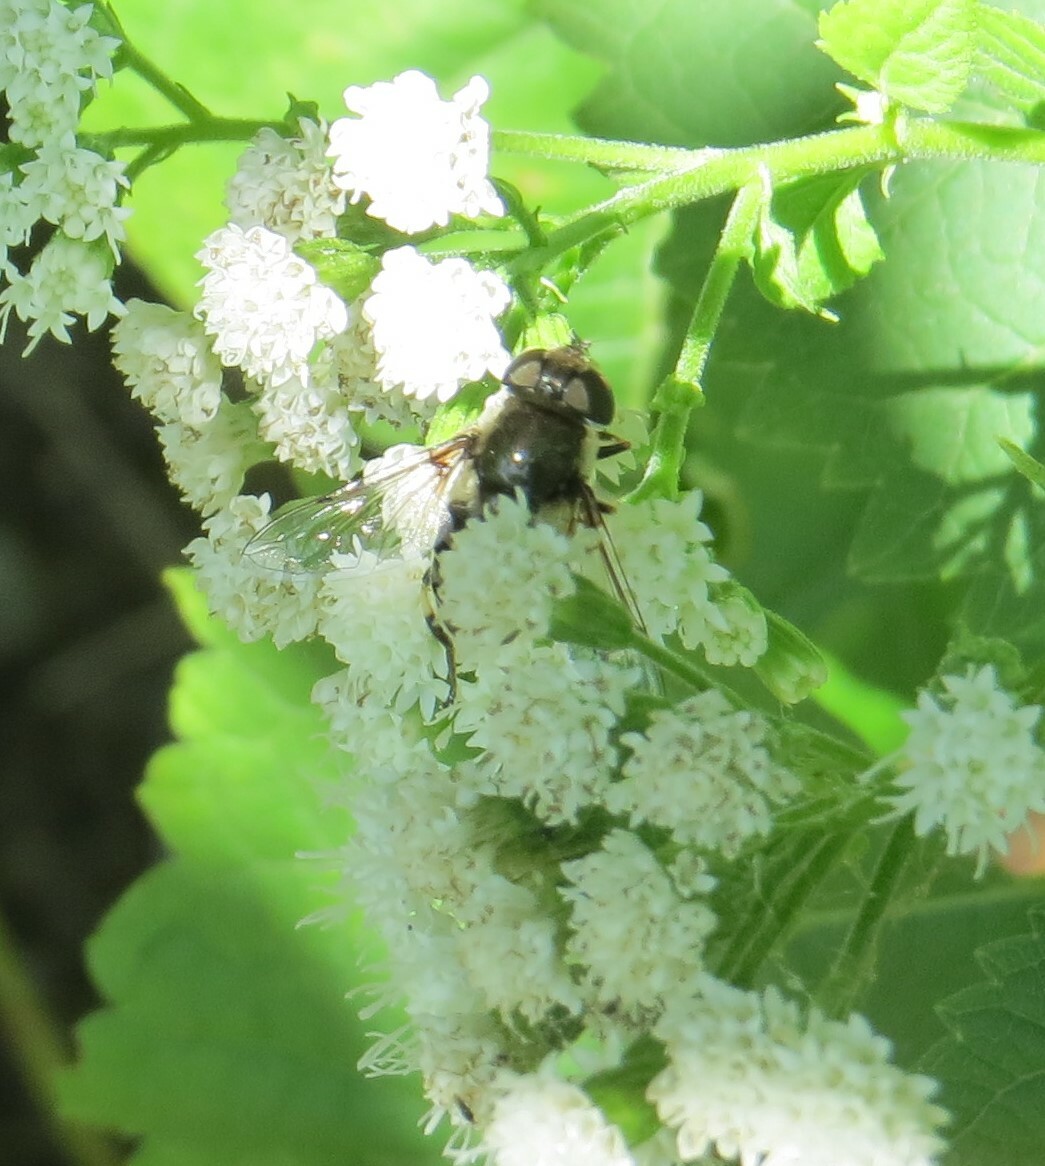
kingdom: Animalia
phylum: Arthropoda
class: Insecta
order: Diptera
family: Syrphidae
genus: Eristalis
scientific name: Eristalis dimidiata
